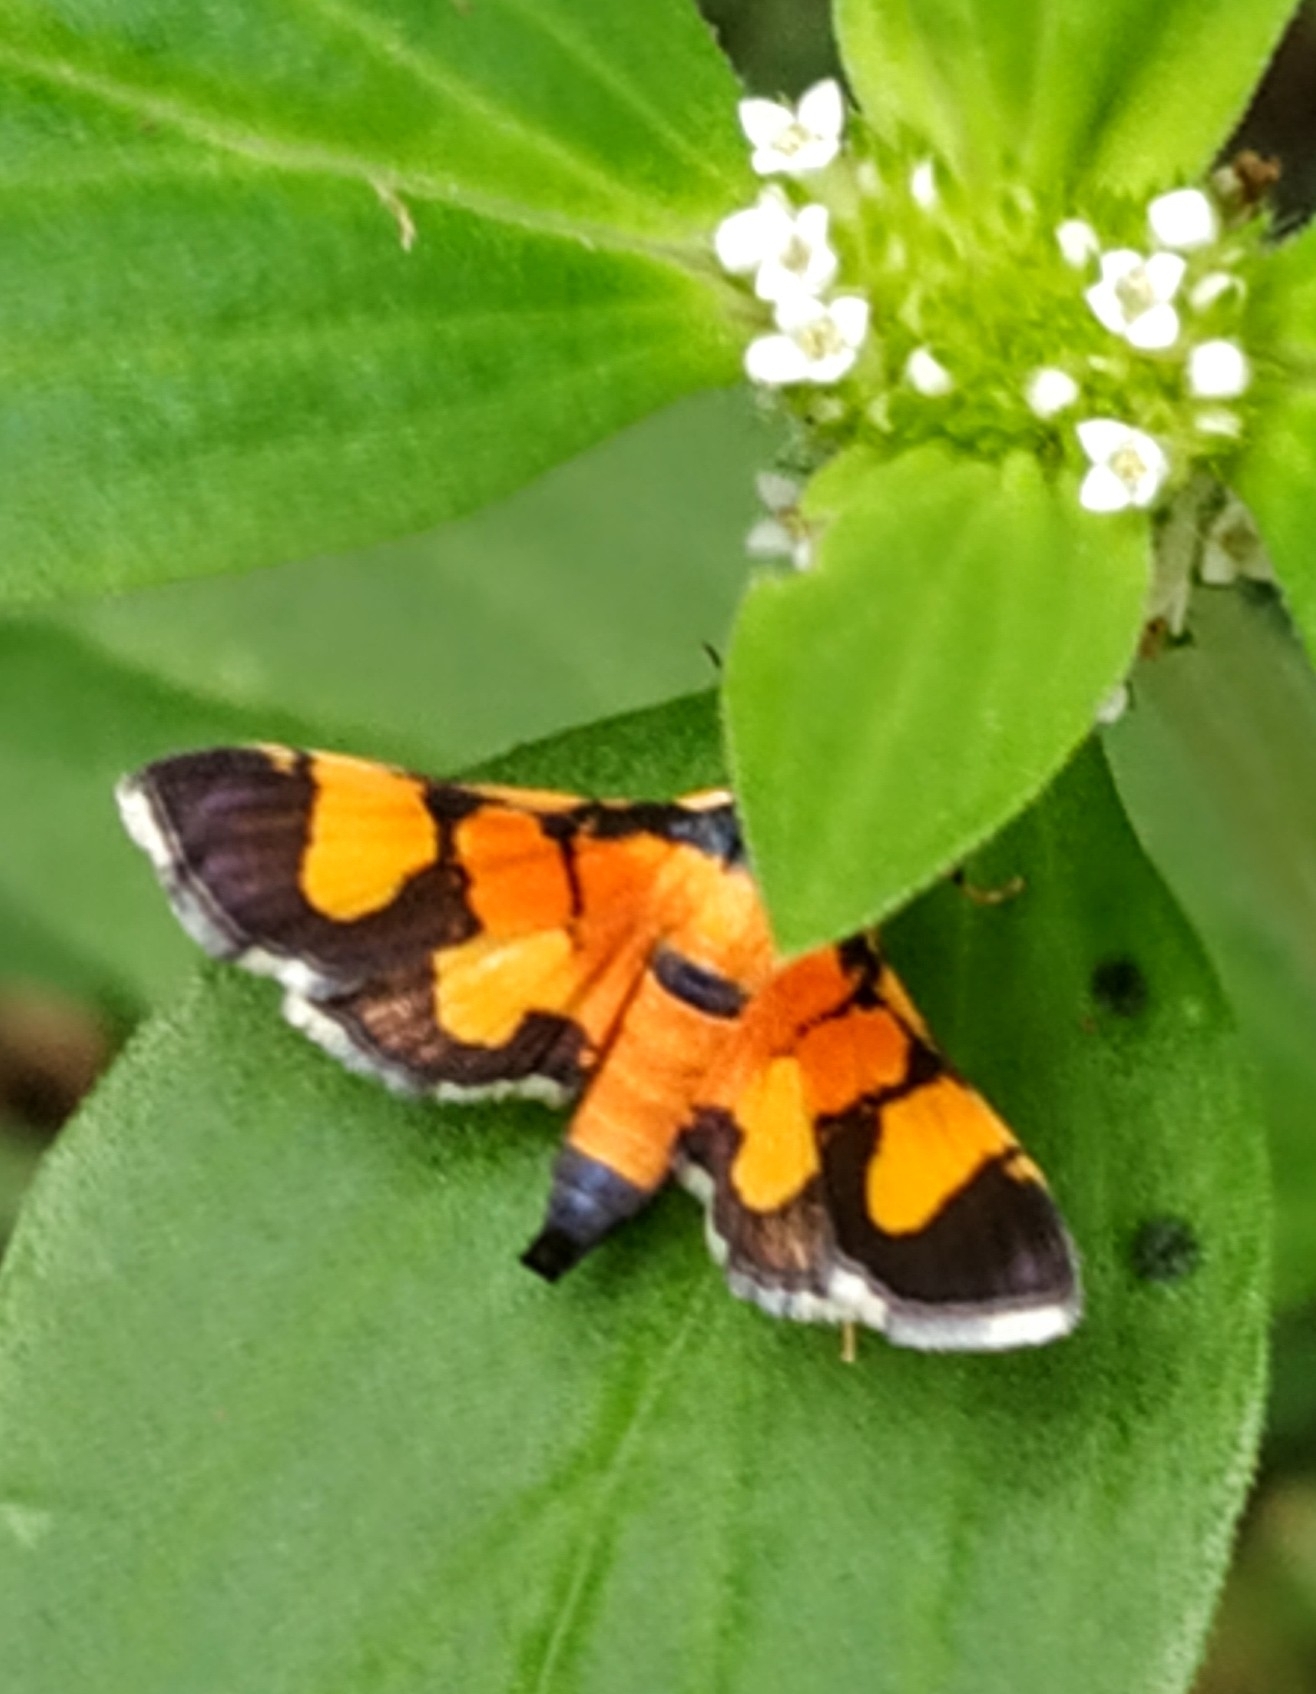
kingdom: Animalia
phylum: Arthropoda
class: Insecta
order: Lepidoptera
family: Crambidae
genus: Aethaloessa
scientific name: Aethaloessa calidalis
